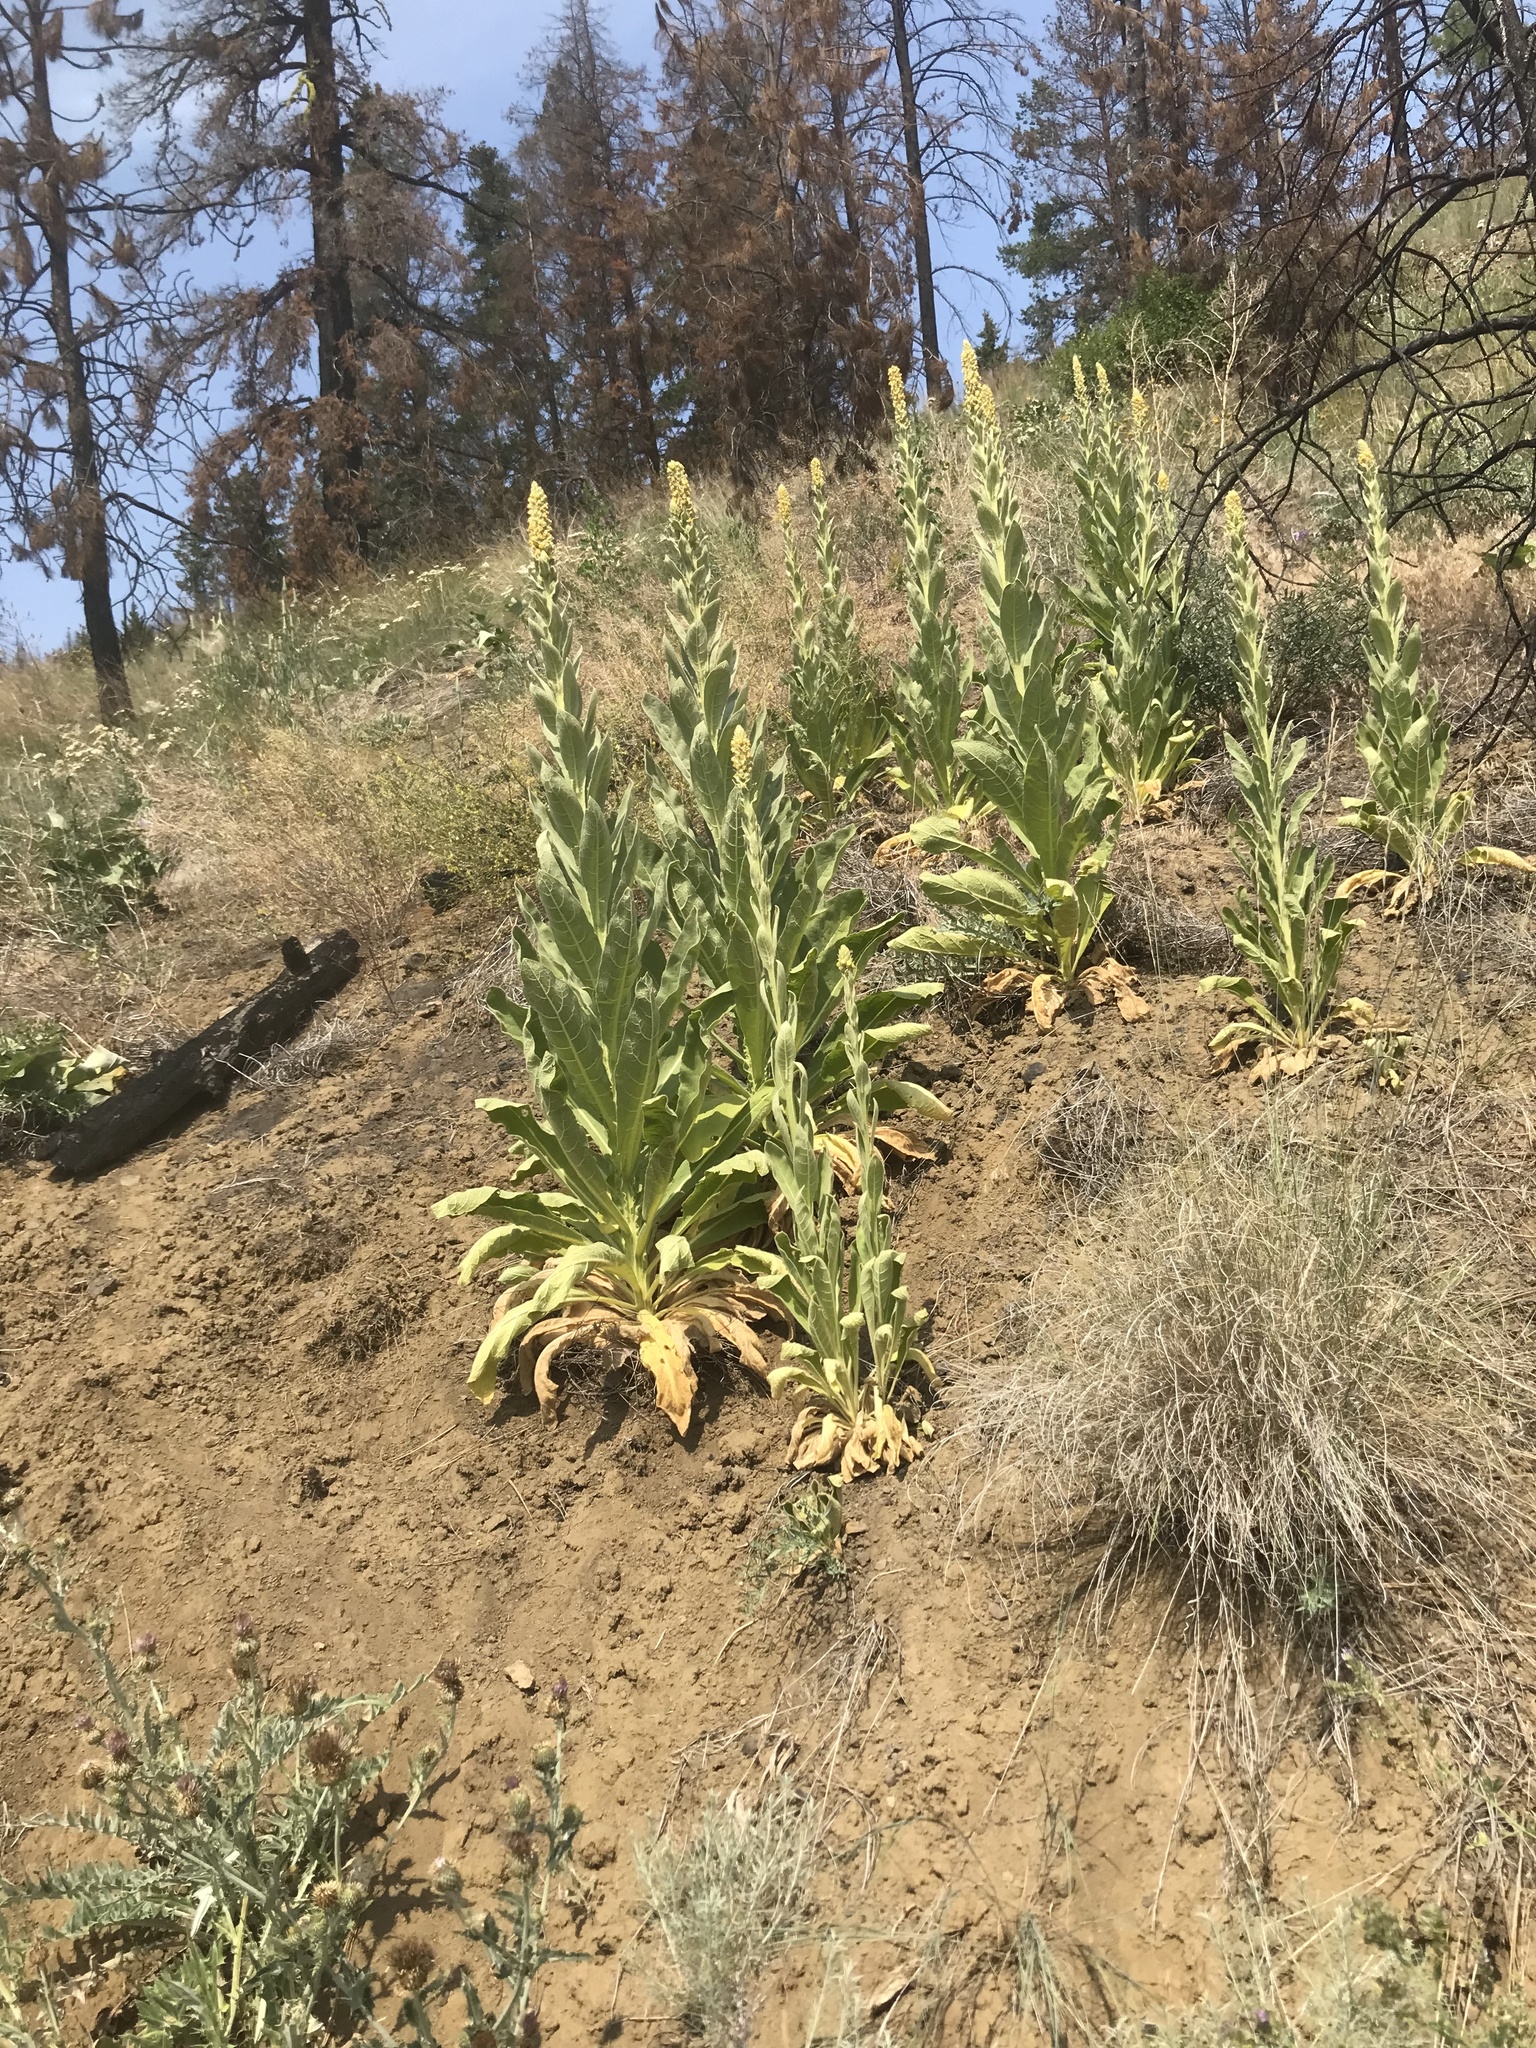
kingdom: Plantae
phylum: Tracheophyta
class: Magnoliopsida
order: Lamiales
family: Scrophulariaceae
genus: Verbascum
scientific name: Verbascum thapsus
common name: Common mullein
